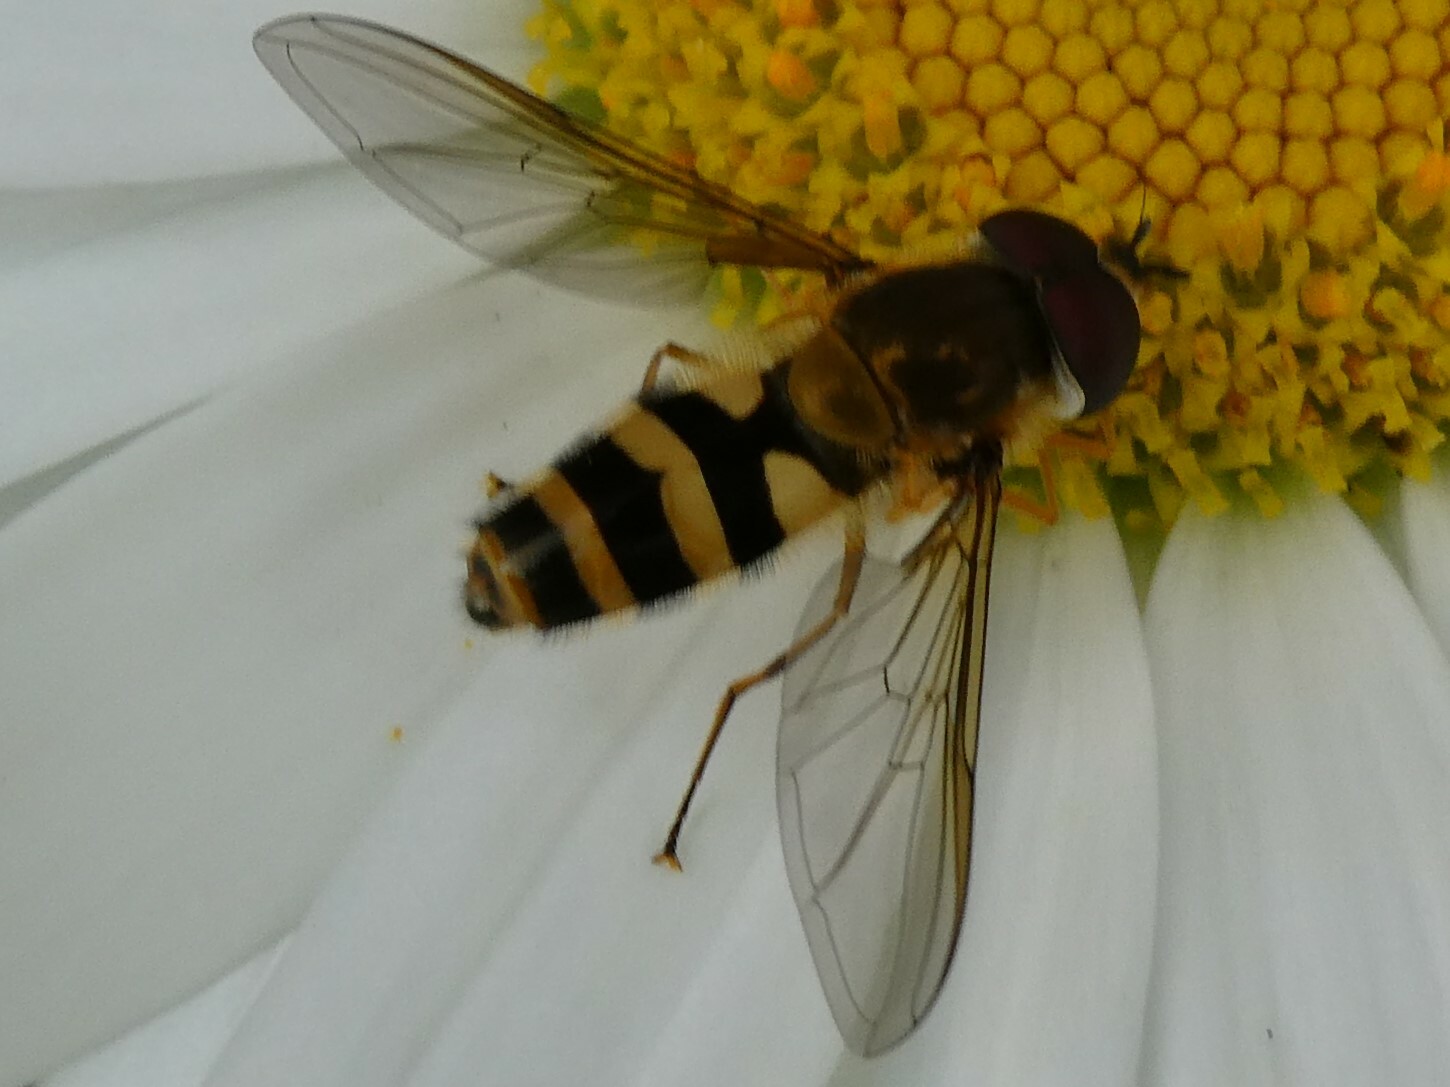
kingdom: Animalia
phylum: Arthropoda
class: Insecta
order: Diptera
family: Syrphidae
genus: Epistrophe
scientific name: Epistrophe grossulariae
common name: Black-horned smoothtail
